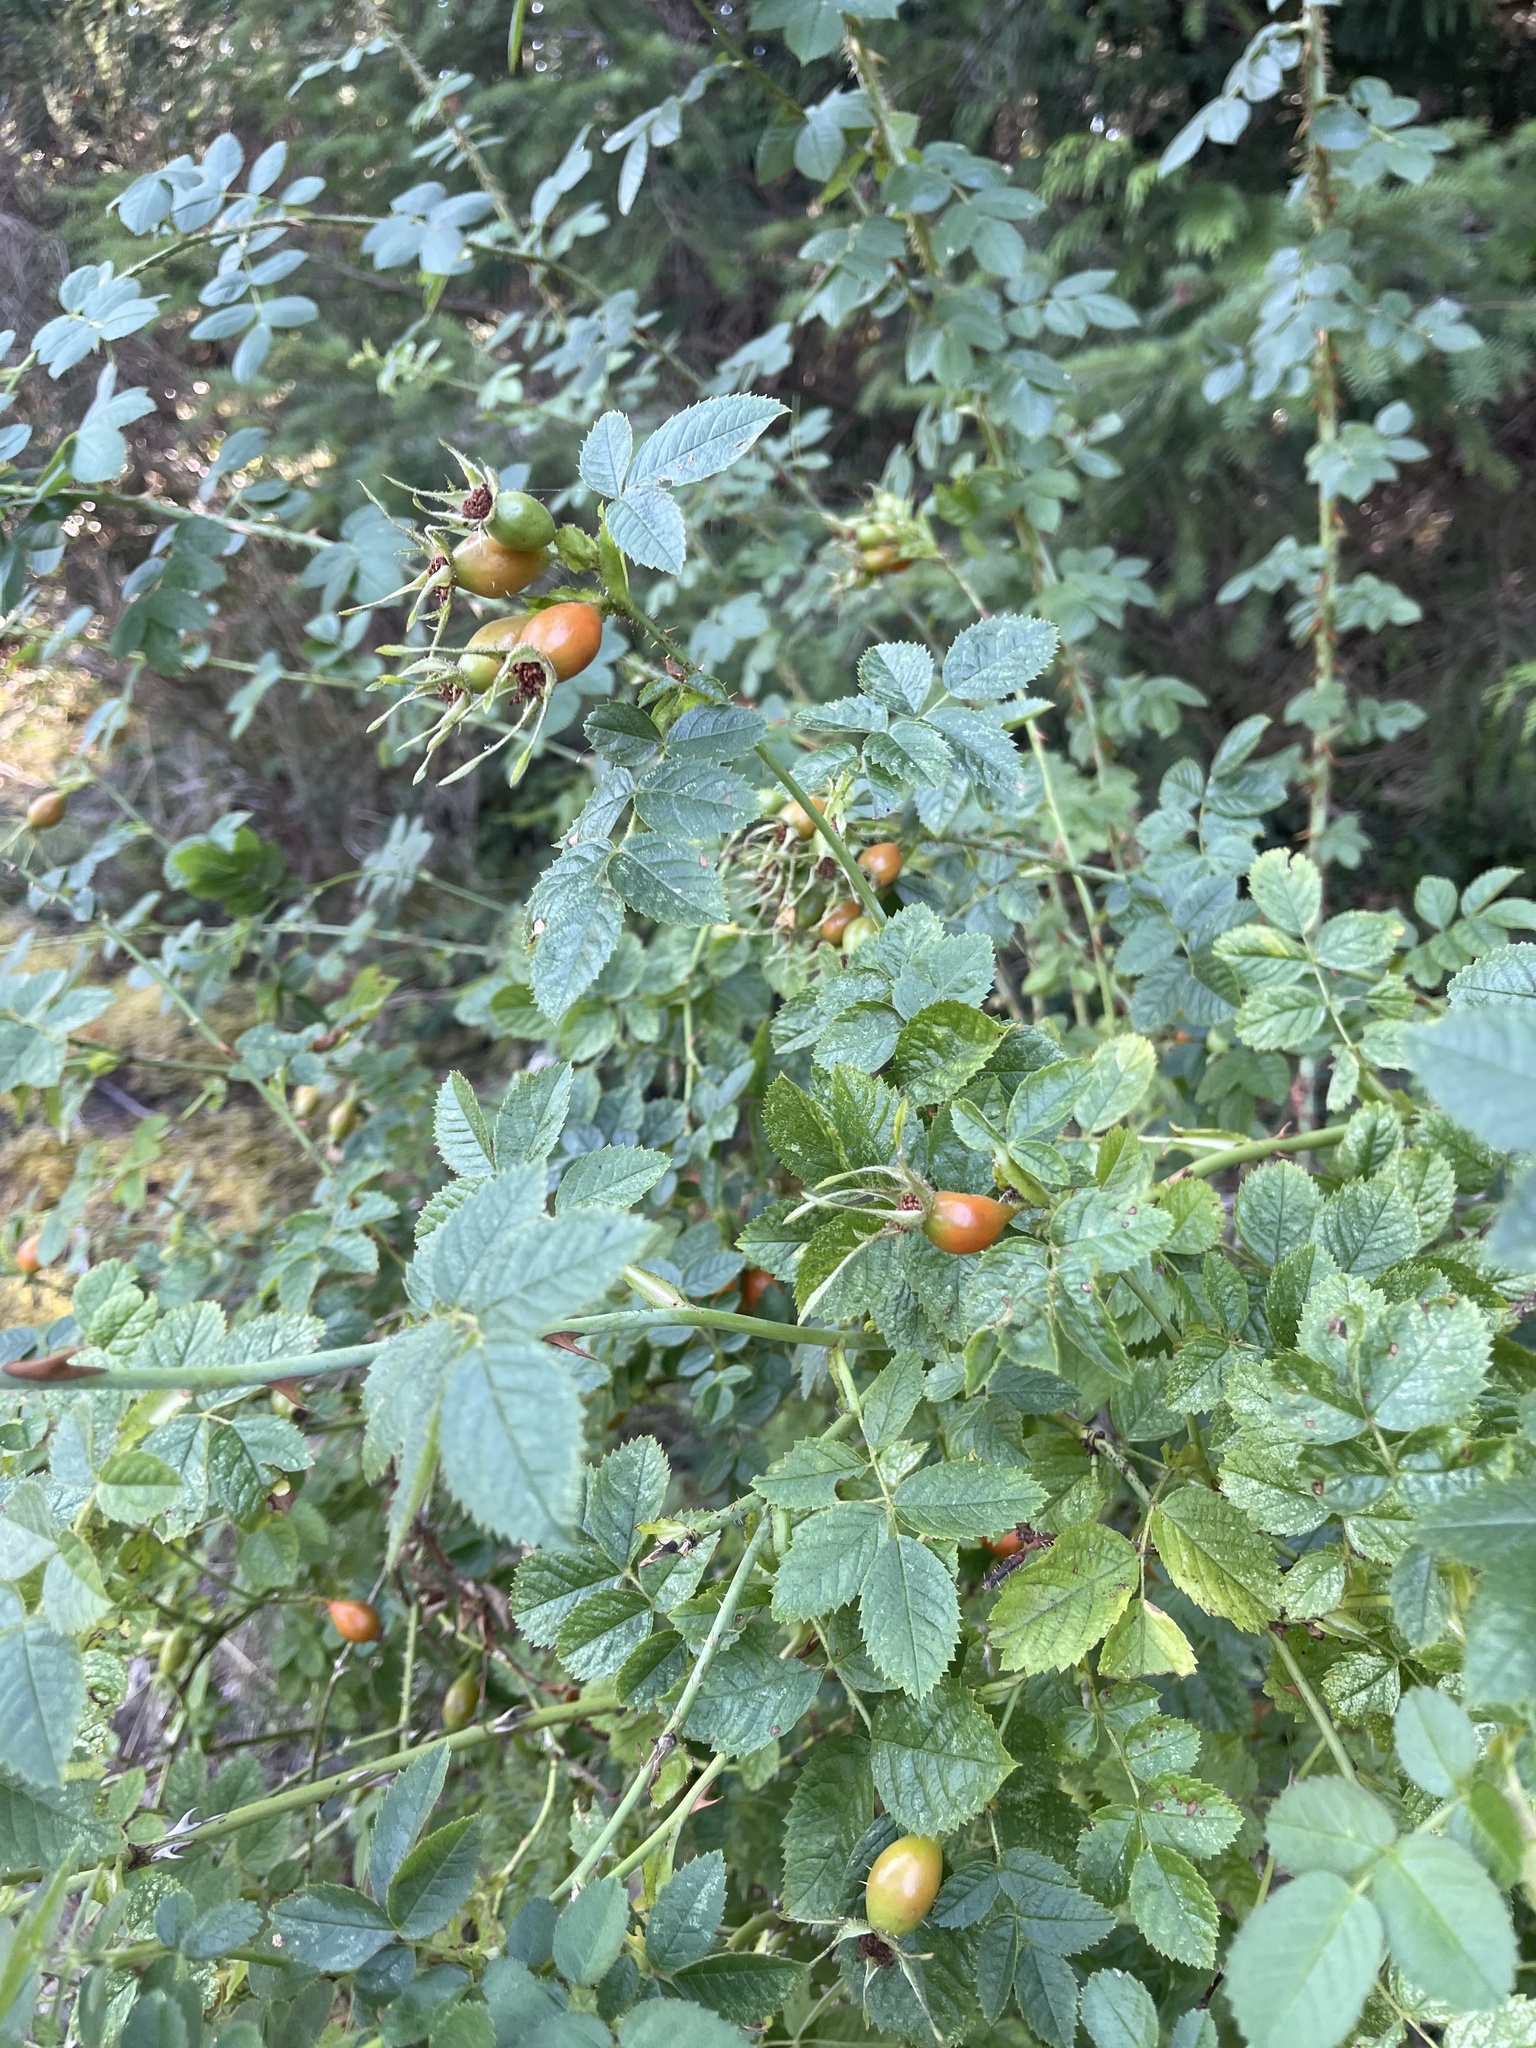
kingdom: Plantae
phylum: Tracheophyta
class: Magnoliopsida
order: Rosales
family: Rosaceae
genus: Rosa
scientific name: Rosa rubiginosa
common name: Sweet-briar
